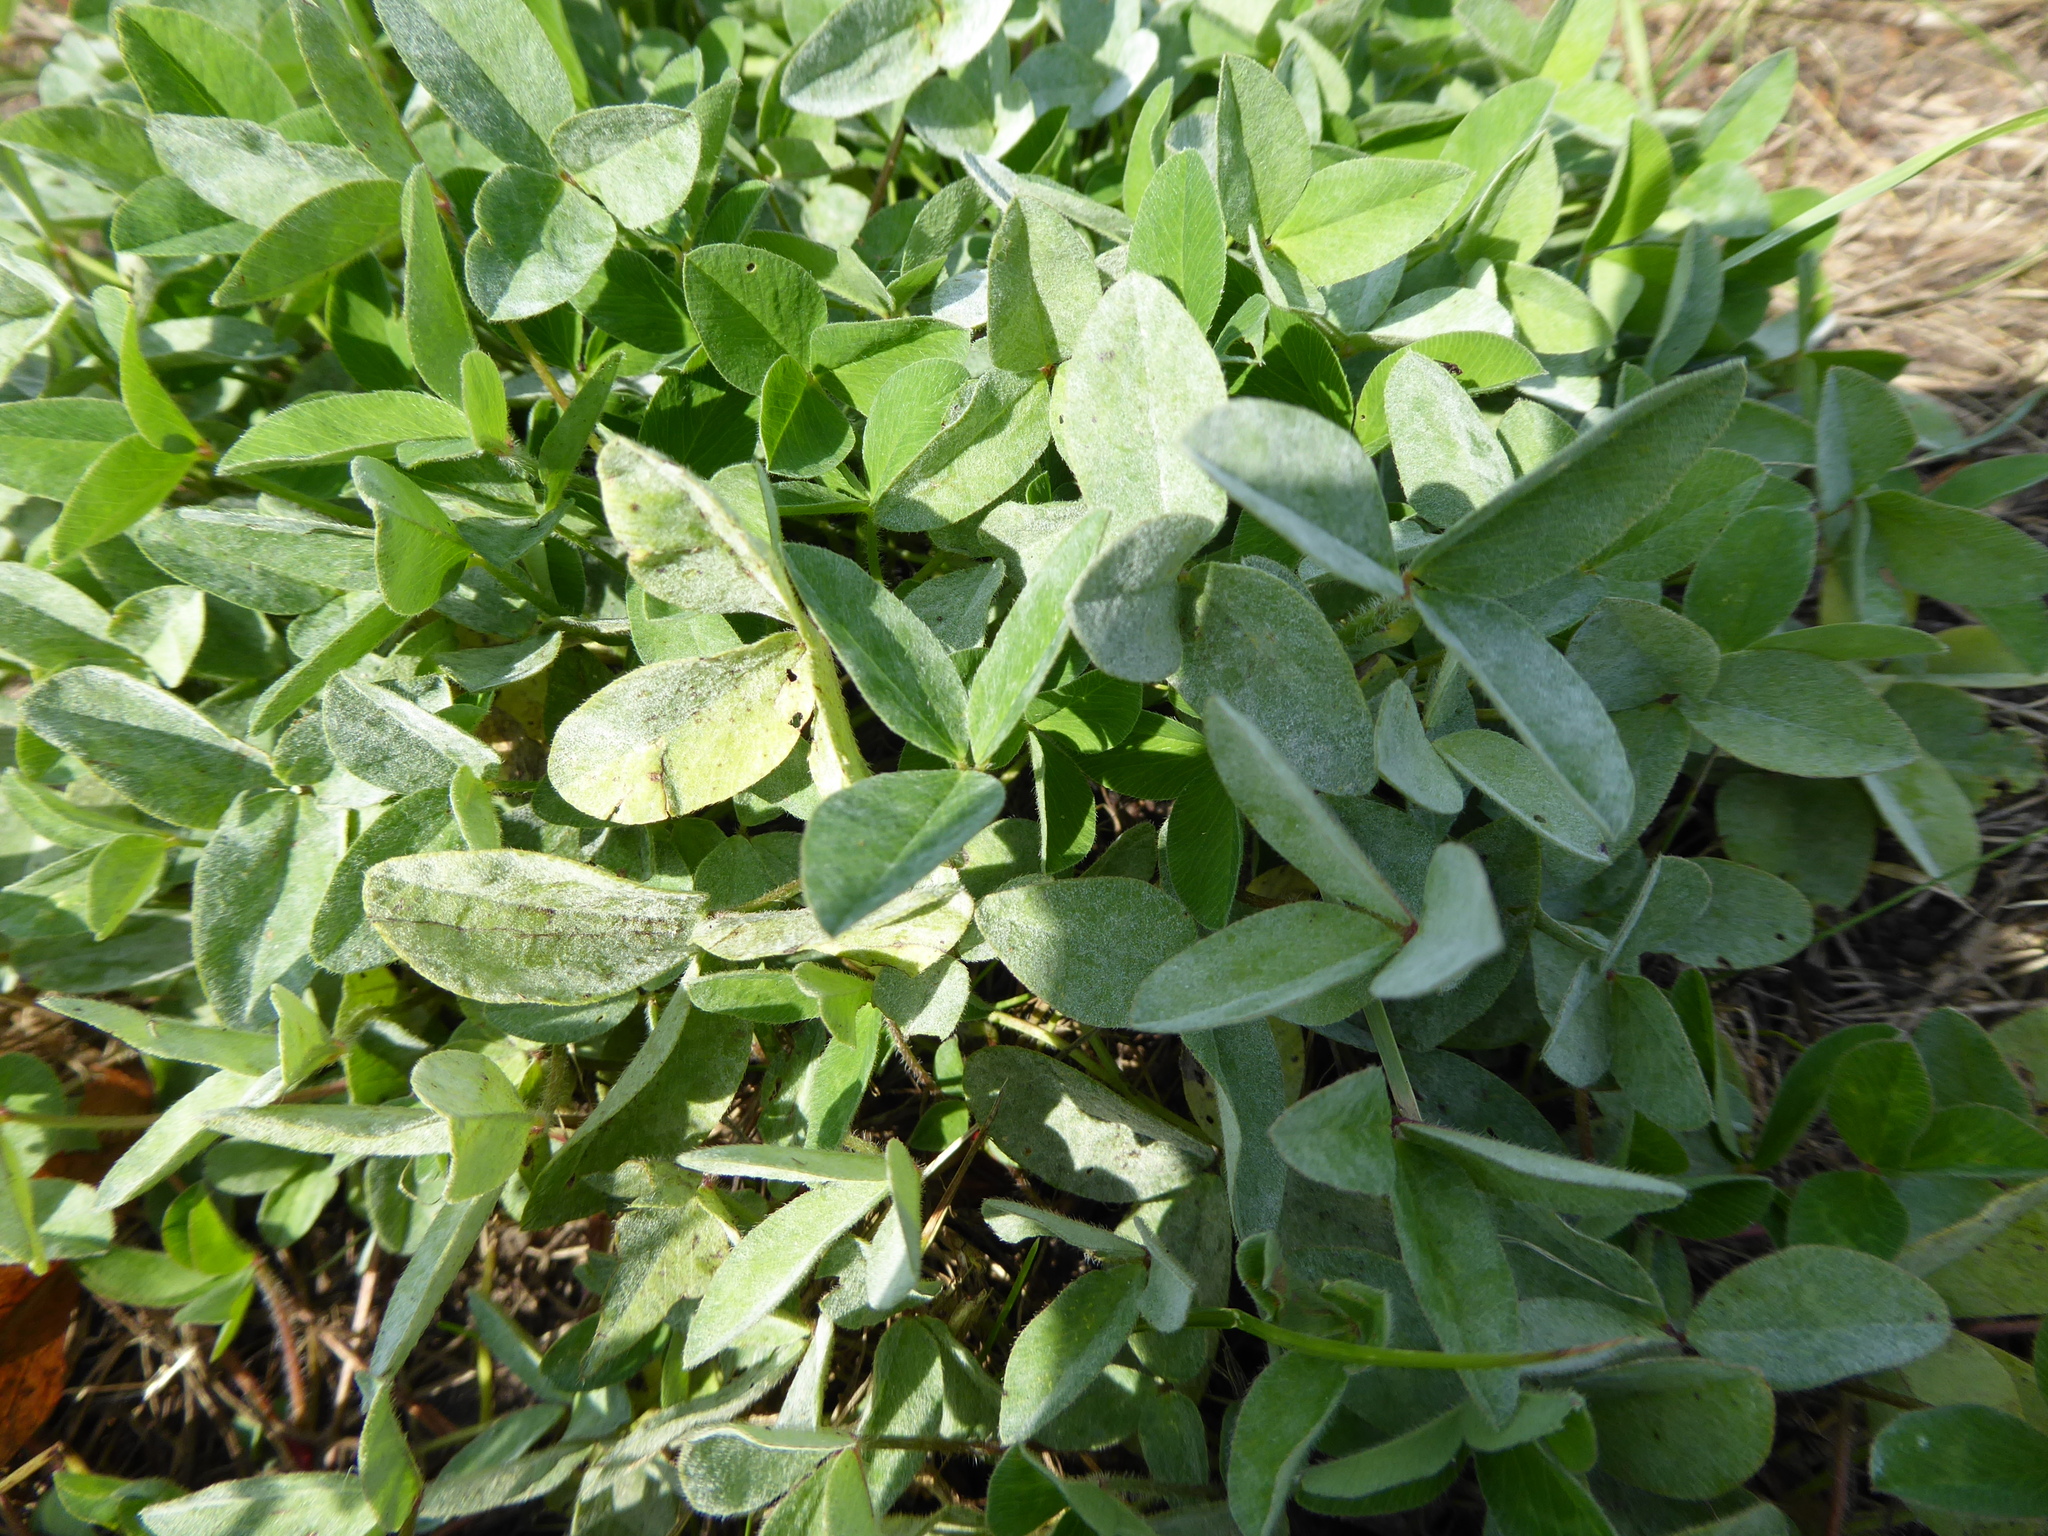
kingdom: Plantae
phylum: Tracheophyta
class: Magnoliopsida
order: Fabales
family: Fabaceae
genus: Trifolium
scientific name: Trifolium pratense
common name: Red clover
